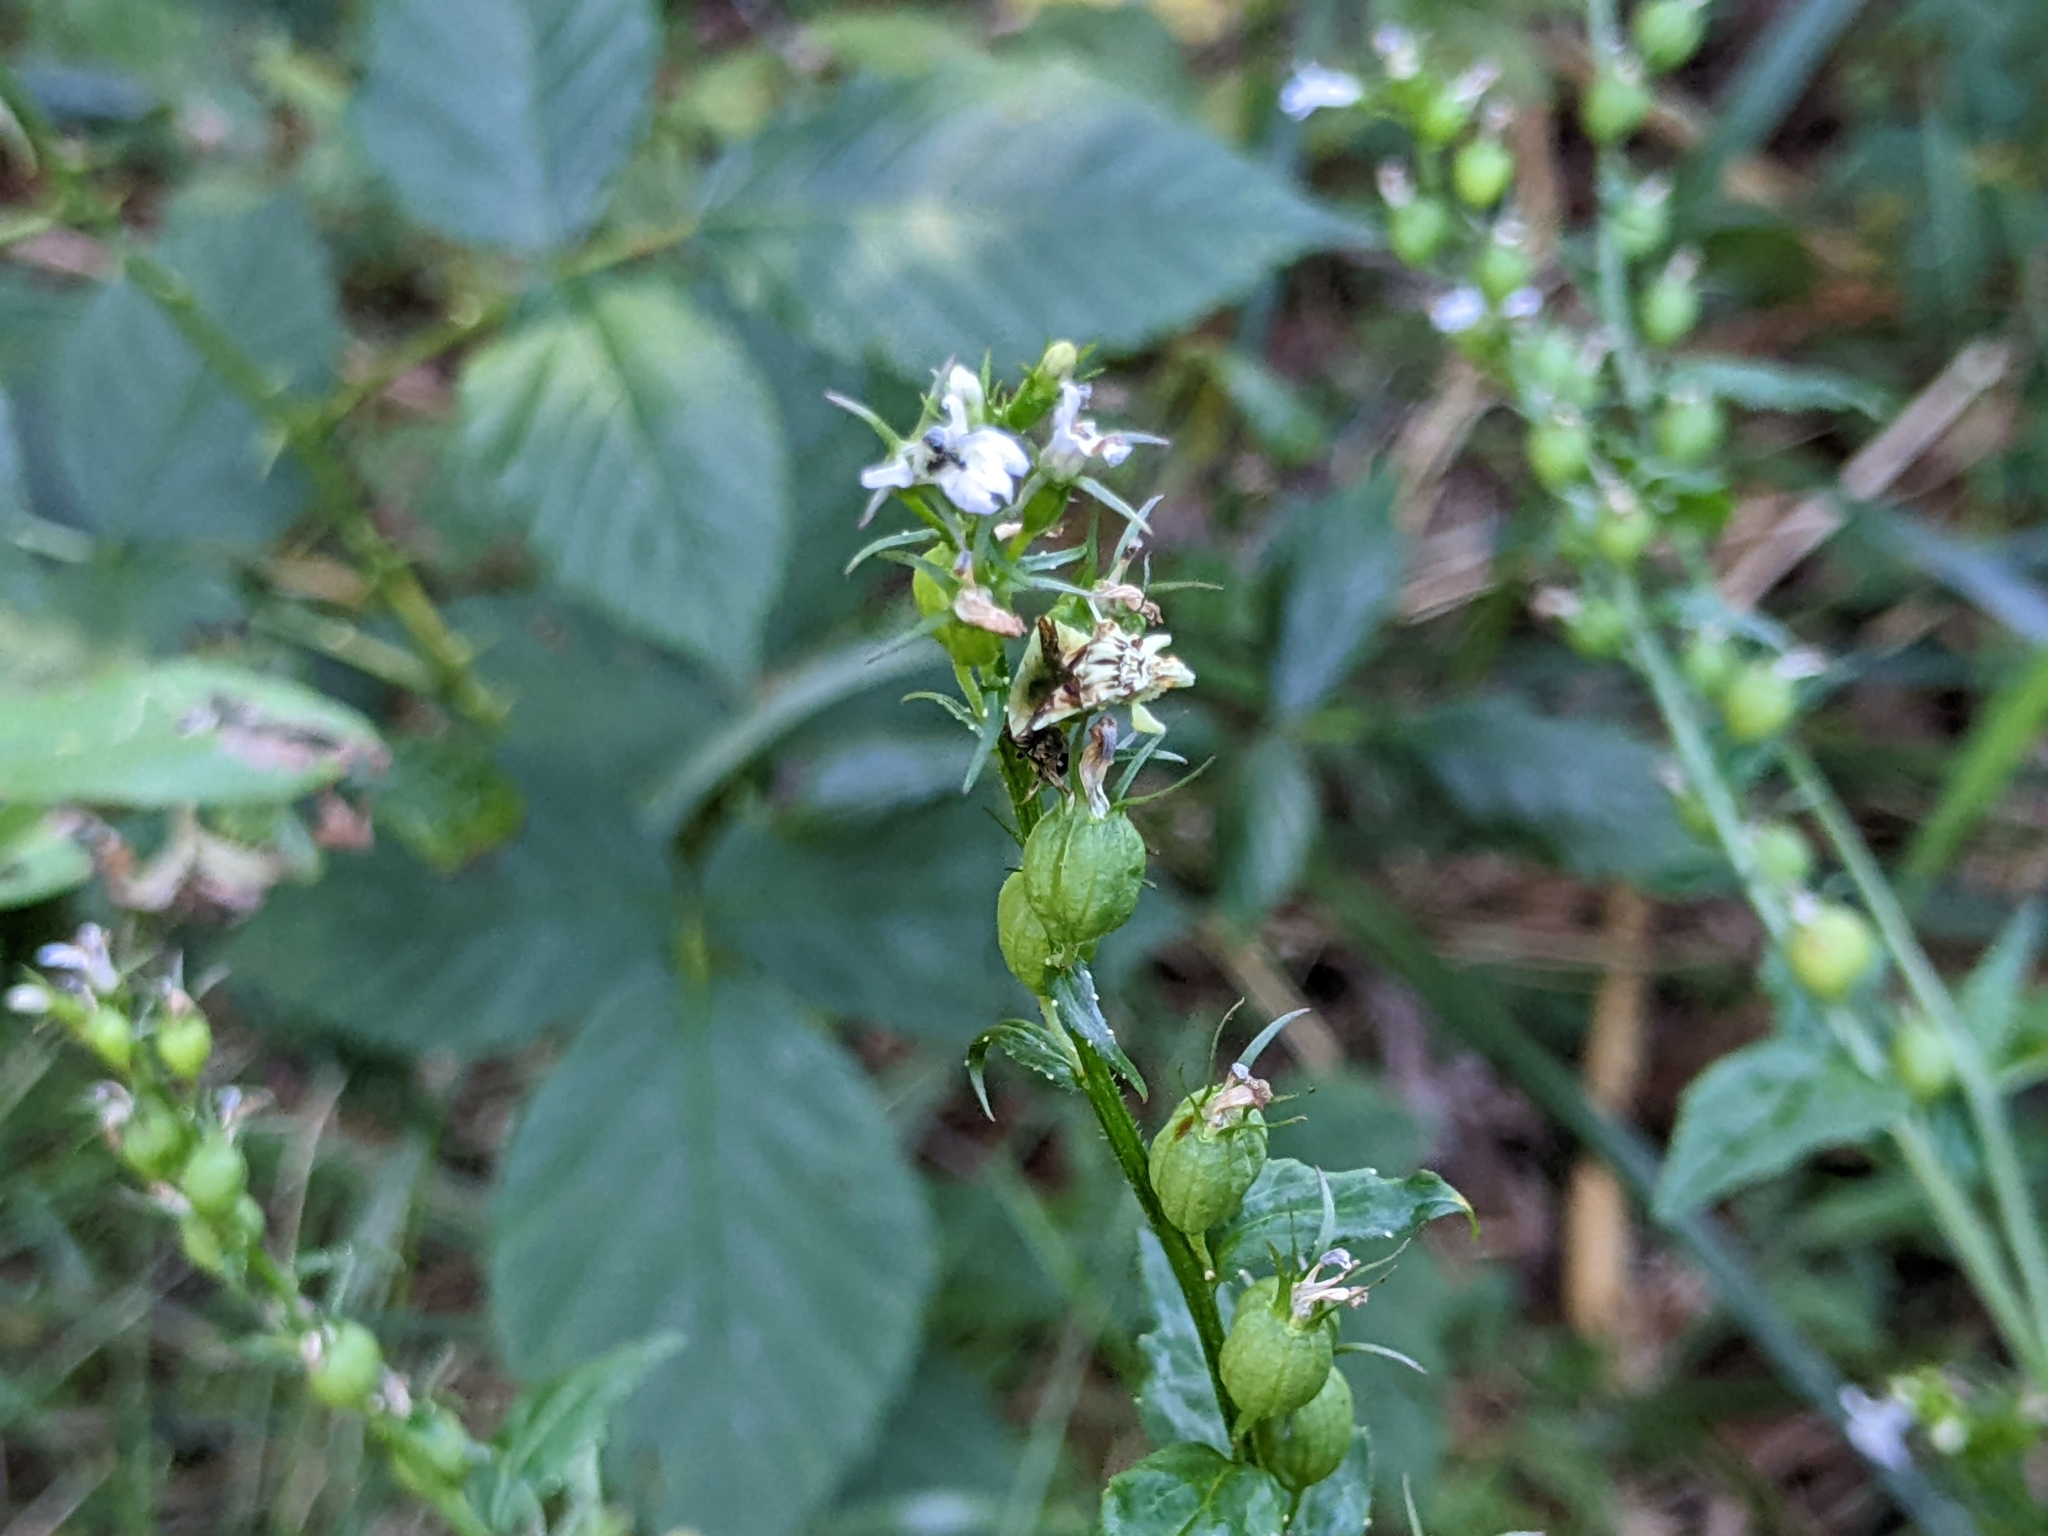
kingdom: Plantae
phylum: Tracheophyta
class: Magnoliopsida
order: Asterales
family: Campanulaceae
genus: Lobelia
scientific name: Lobelia inflata
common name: Indian tobacco
